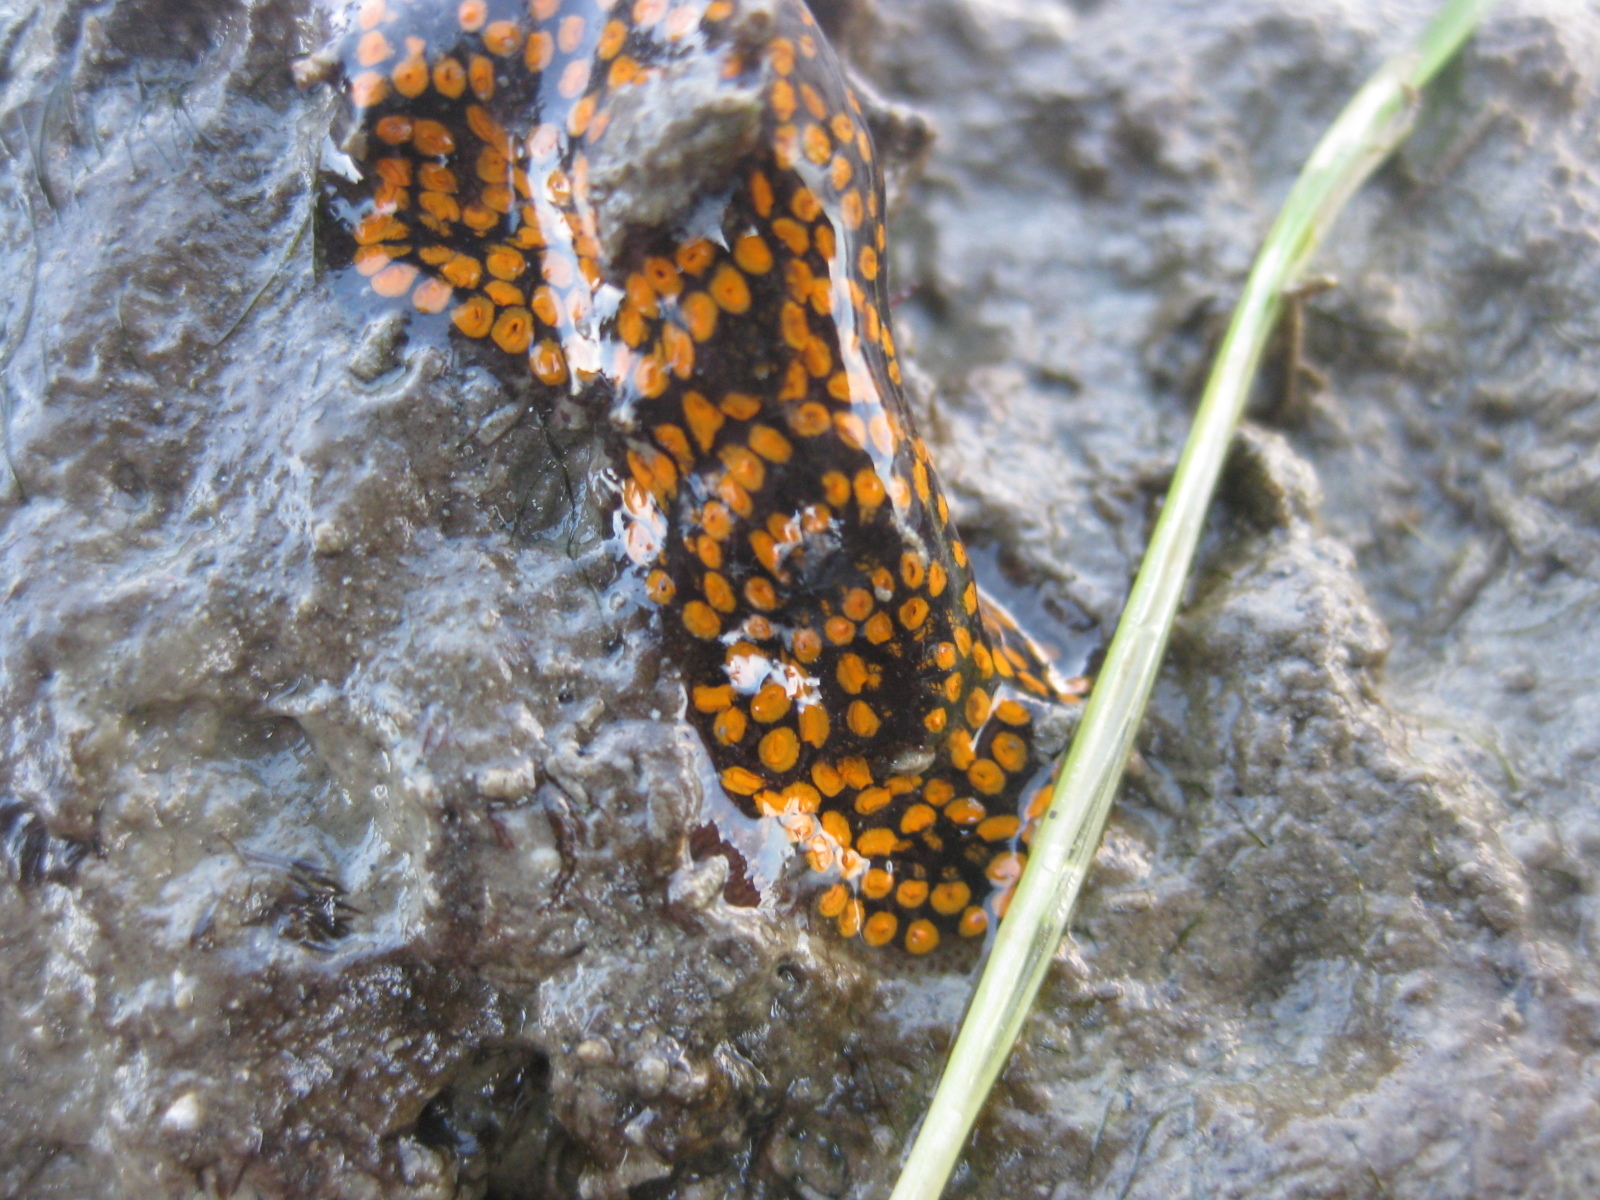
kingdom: Animalia
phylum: Chordata
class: Ascidiacea
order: Stolidobranchia
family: Styelidae
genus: Botrylloides
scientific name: Botrylloides diegensis
